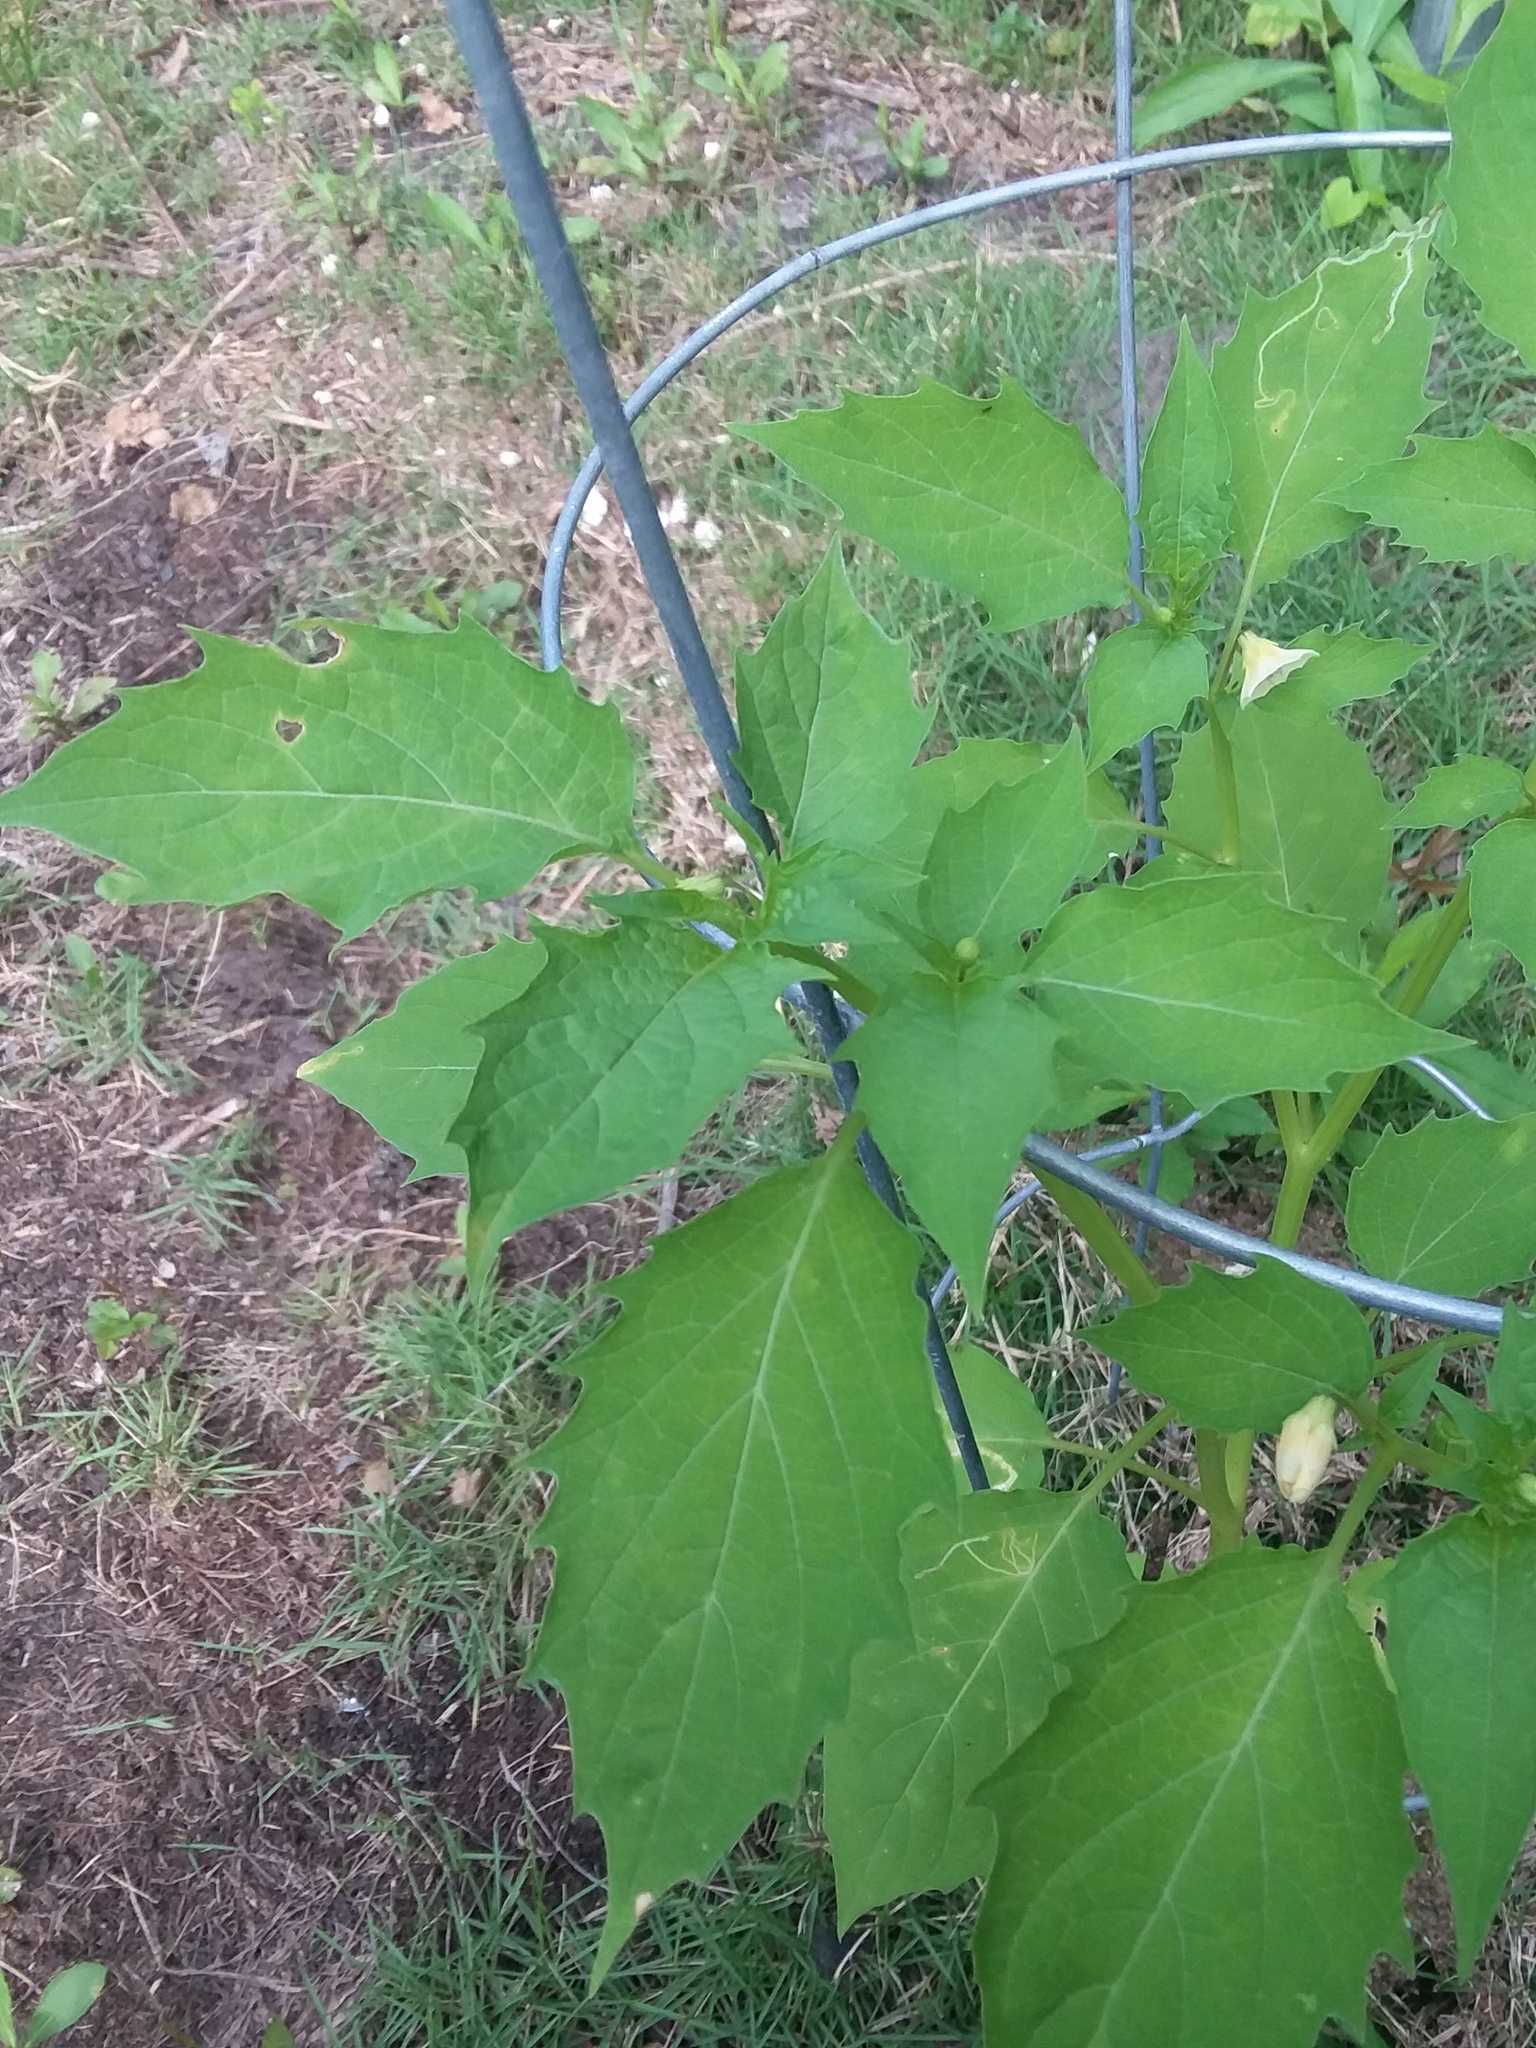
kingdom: Plantae
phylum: Tracheophyta
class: Magnoliopsida
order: Solanales
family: Solanaceae
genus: Physalis
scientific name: Physalis angulata
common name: Angular winter-cherry
